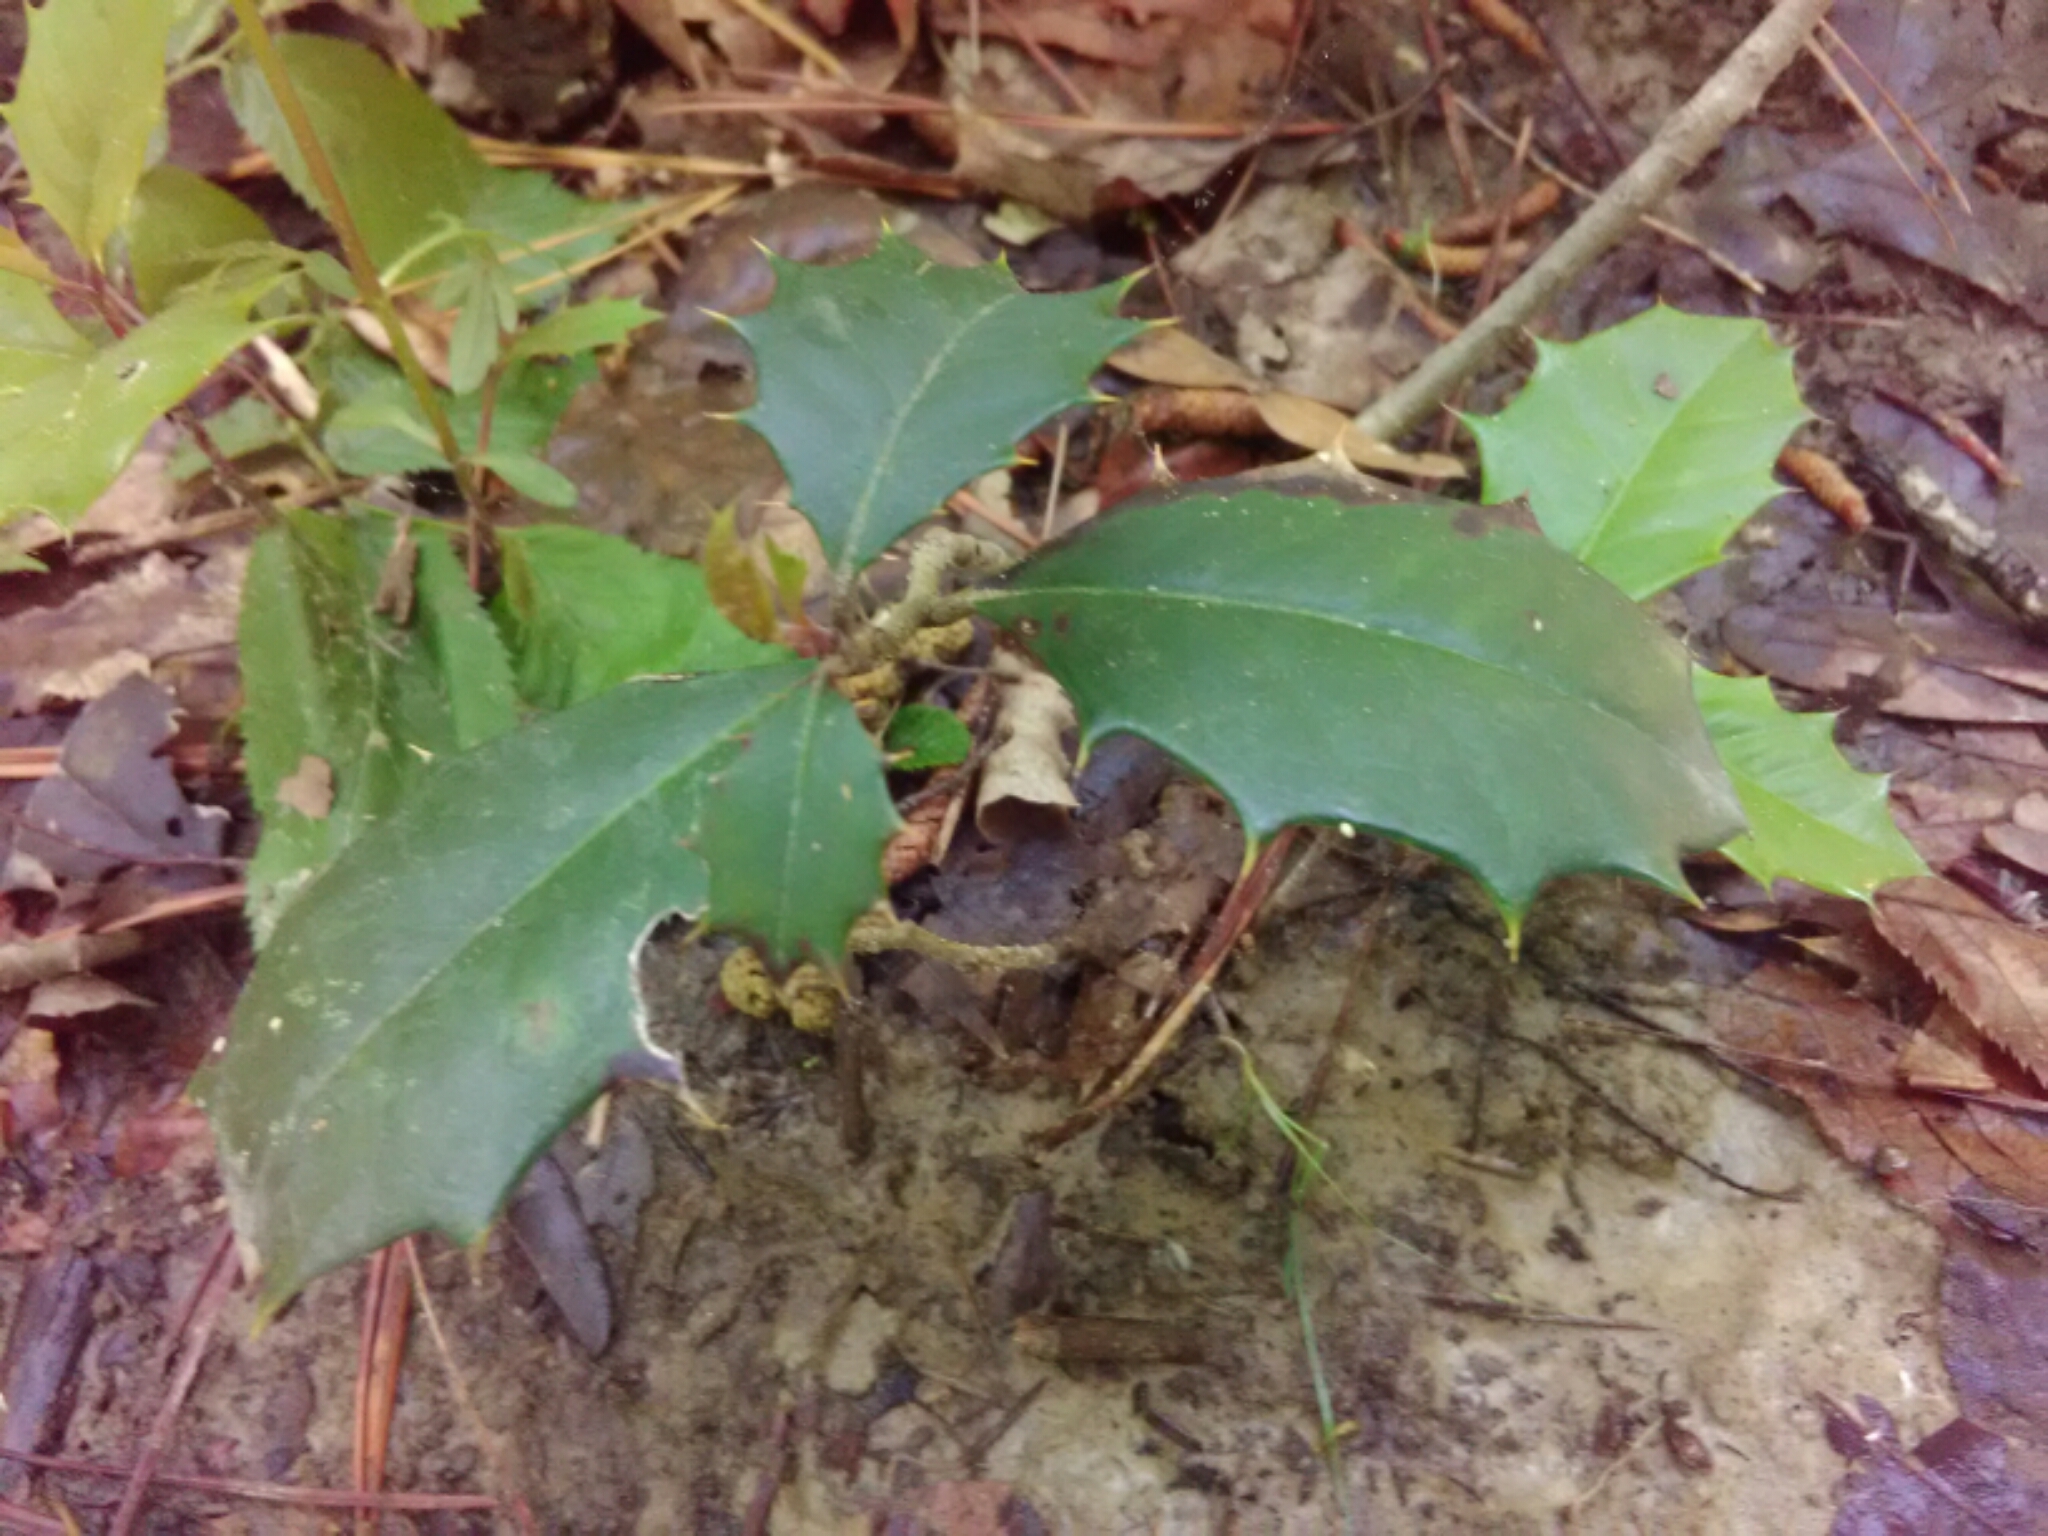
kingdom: Plantae
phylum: Tracheophyta
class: Magnoliopsida
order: Aquifoliales
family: Aquifoliaceae
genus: Ilex
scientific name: Ilex opaca
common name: American holly
